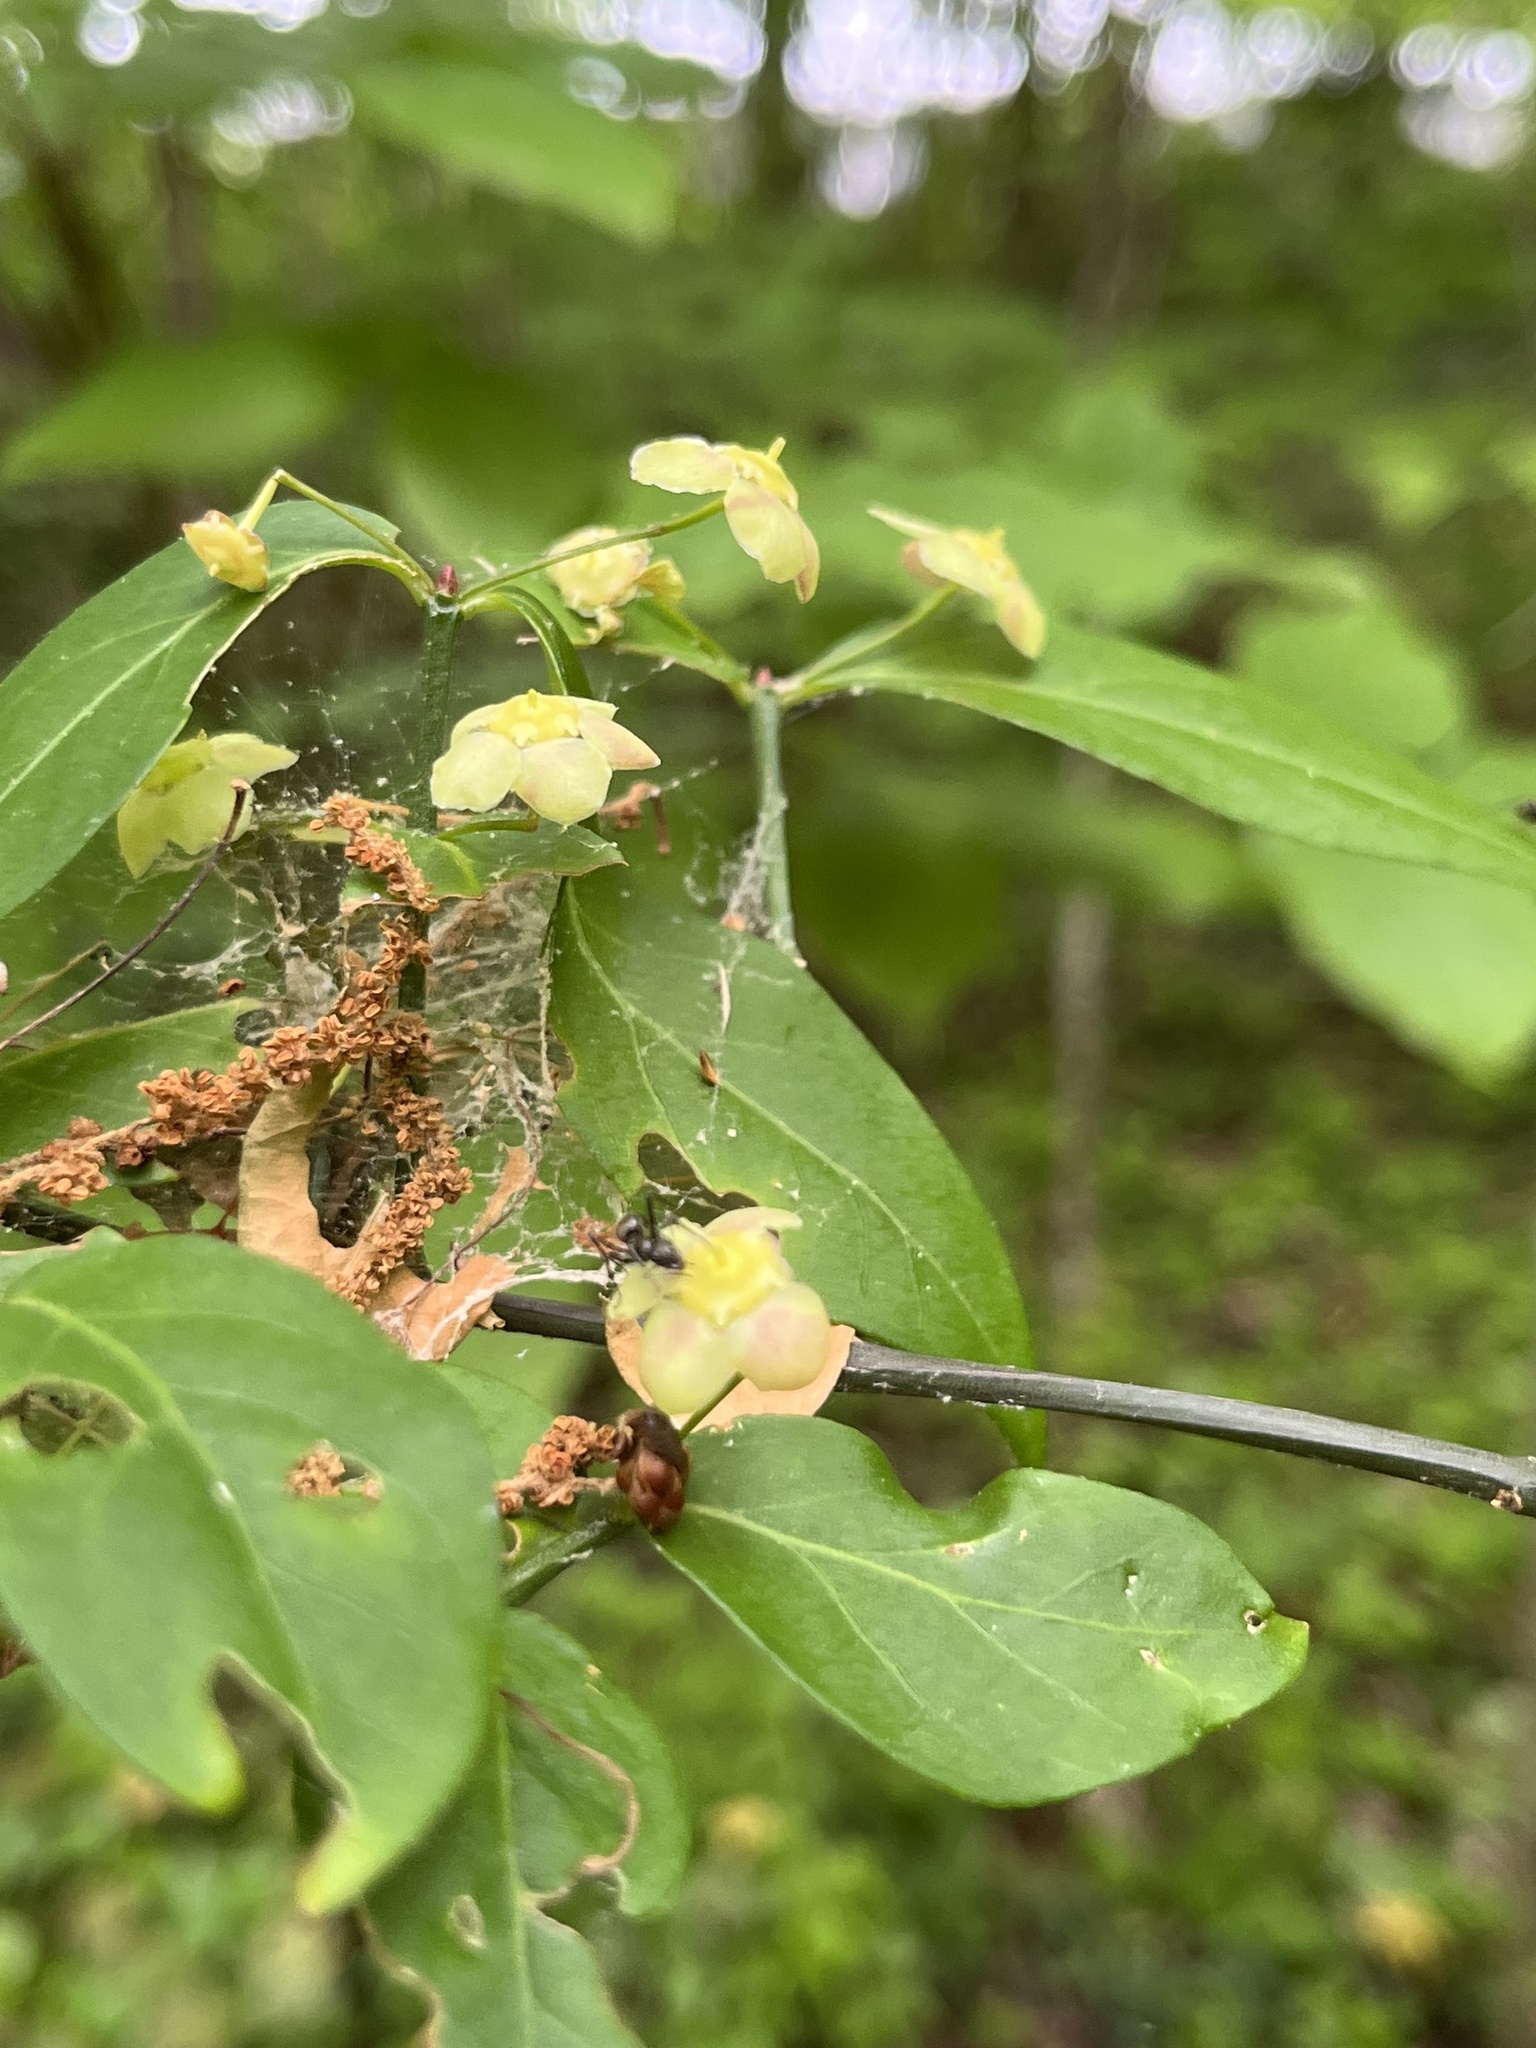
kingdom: Plantae
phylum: Tracheophyta
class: Magnoliopsida
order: Celastrales
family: Celastraceae
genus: Euonymus
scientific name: Euonymus americanus
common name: Bursting-heart
